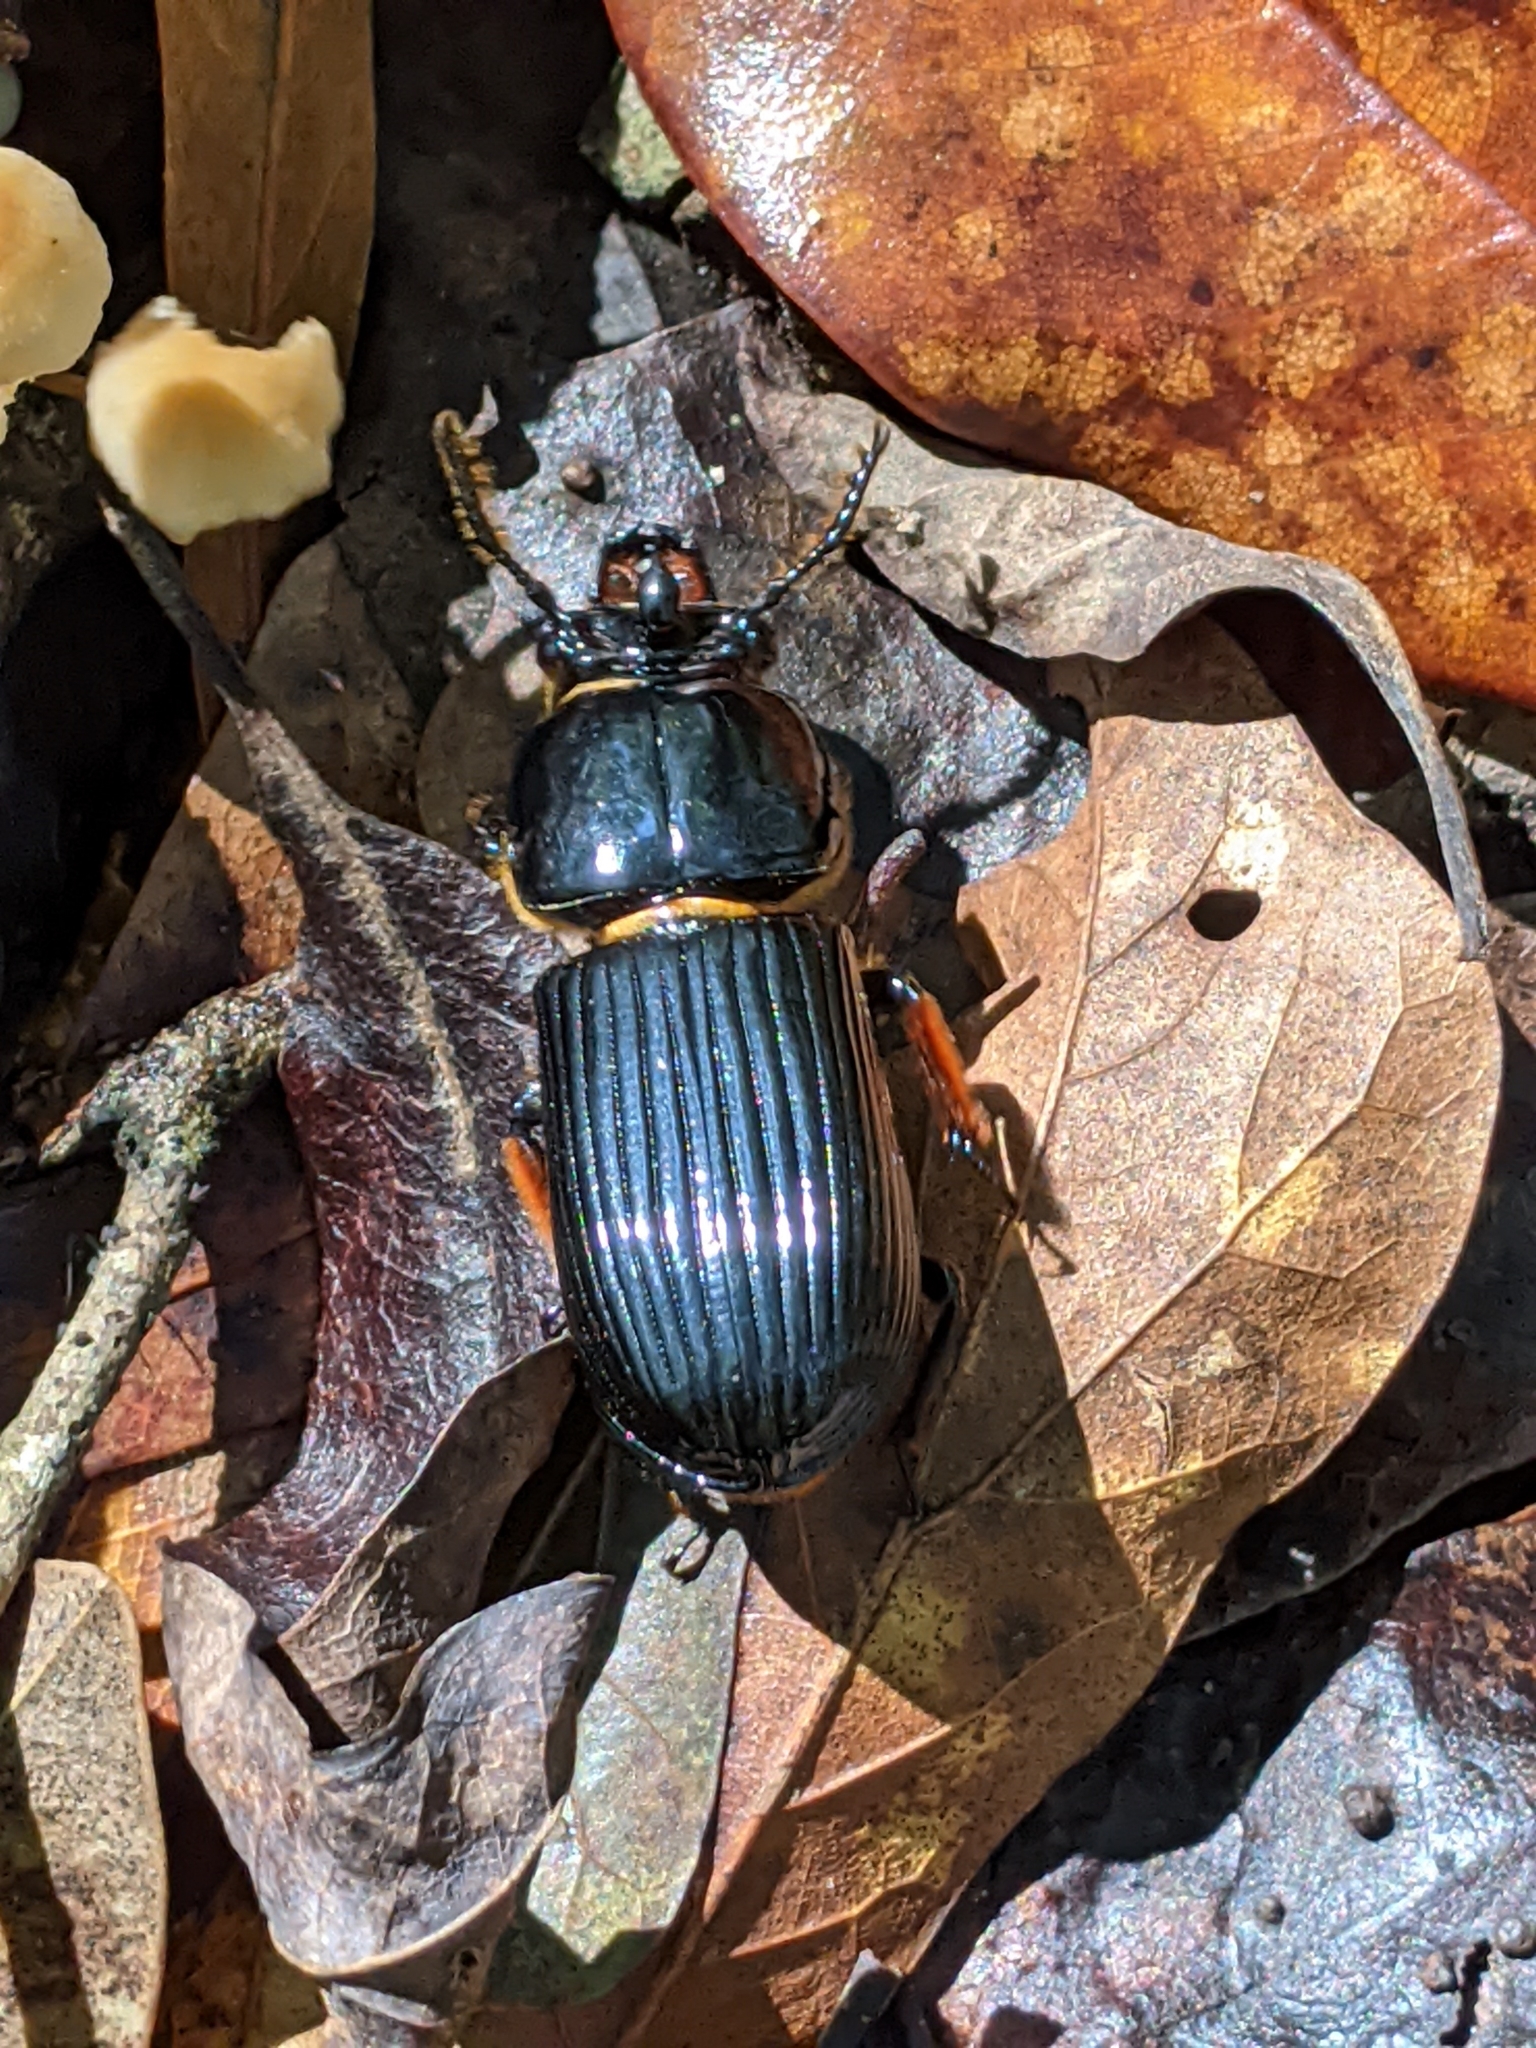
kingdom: Animalia
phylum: Arthropoda
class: Insecta
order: Coleoptera
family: Passalidae
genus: Odontotaenius
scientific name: Odontotaenius disjunctus
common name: Patent leather beetle
